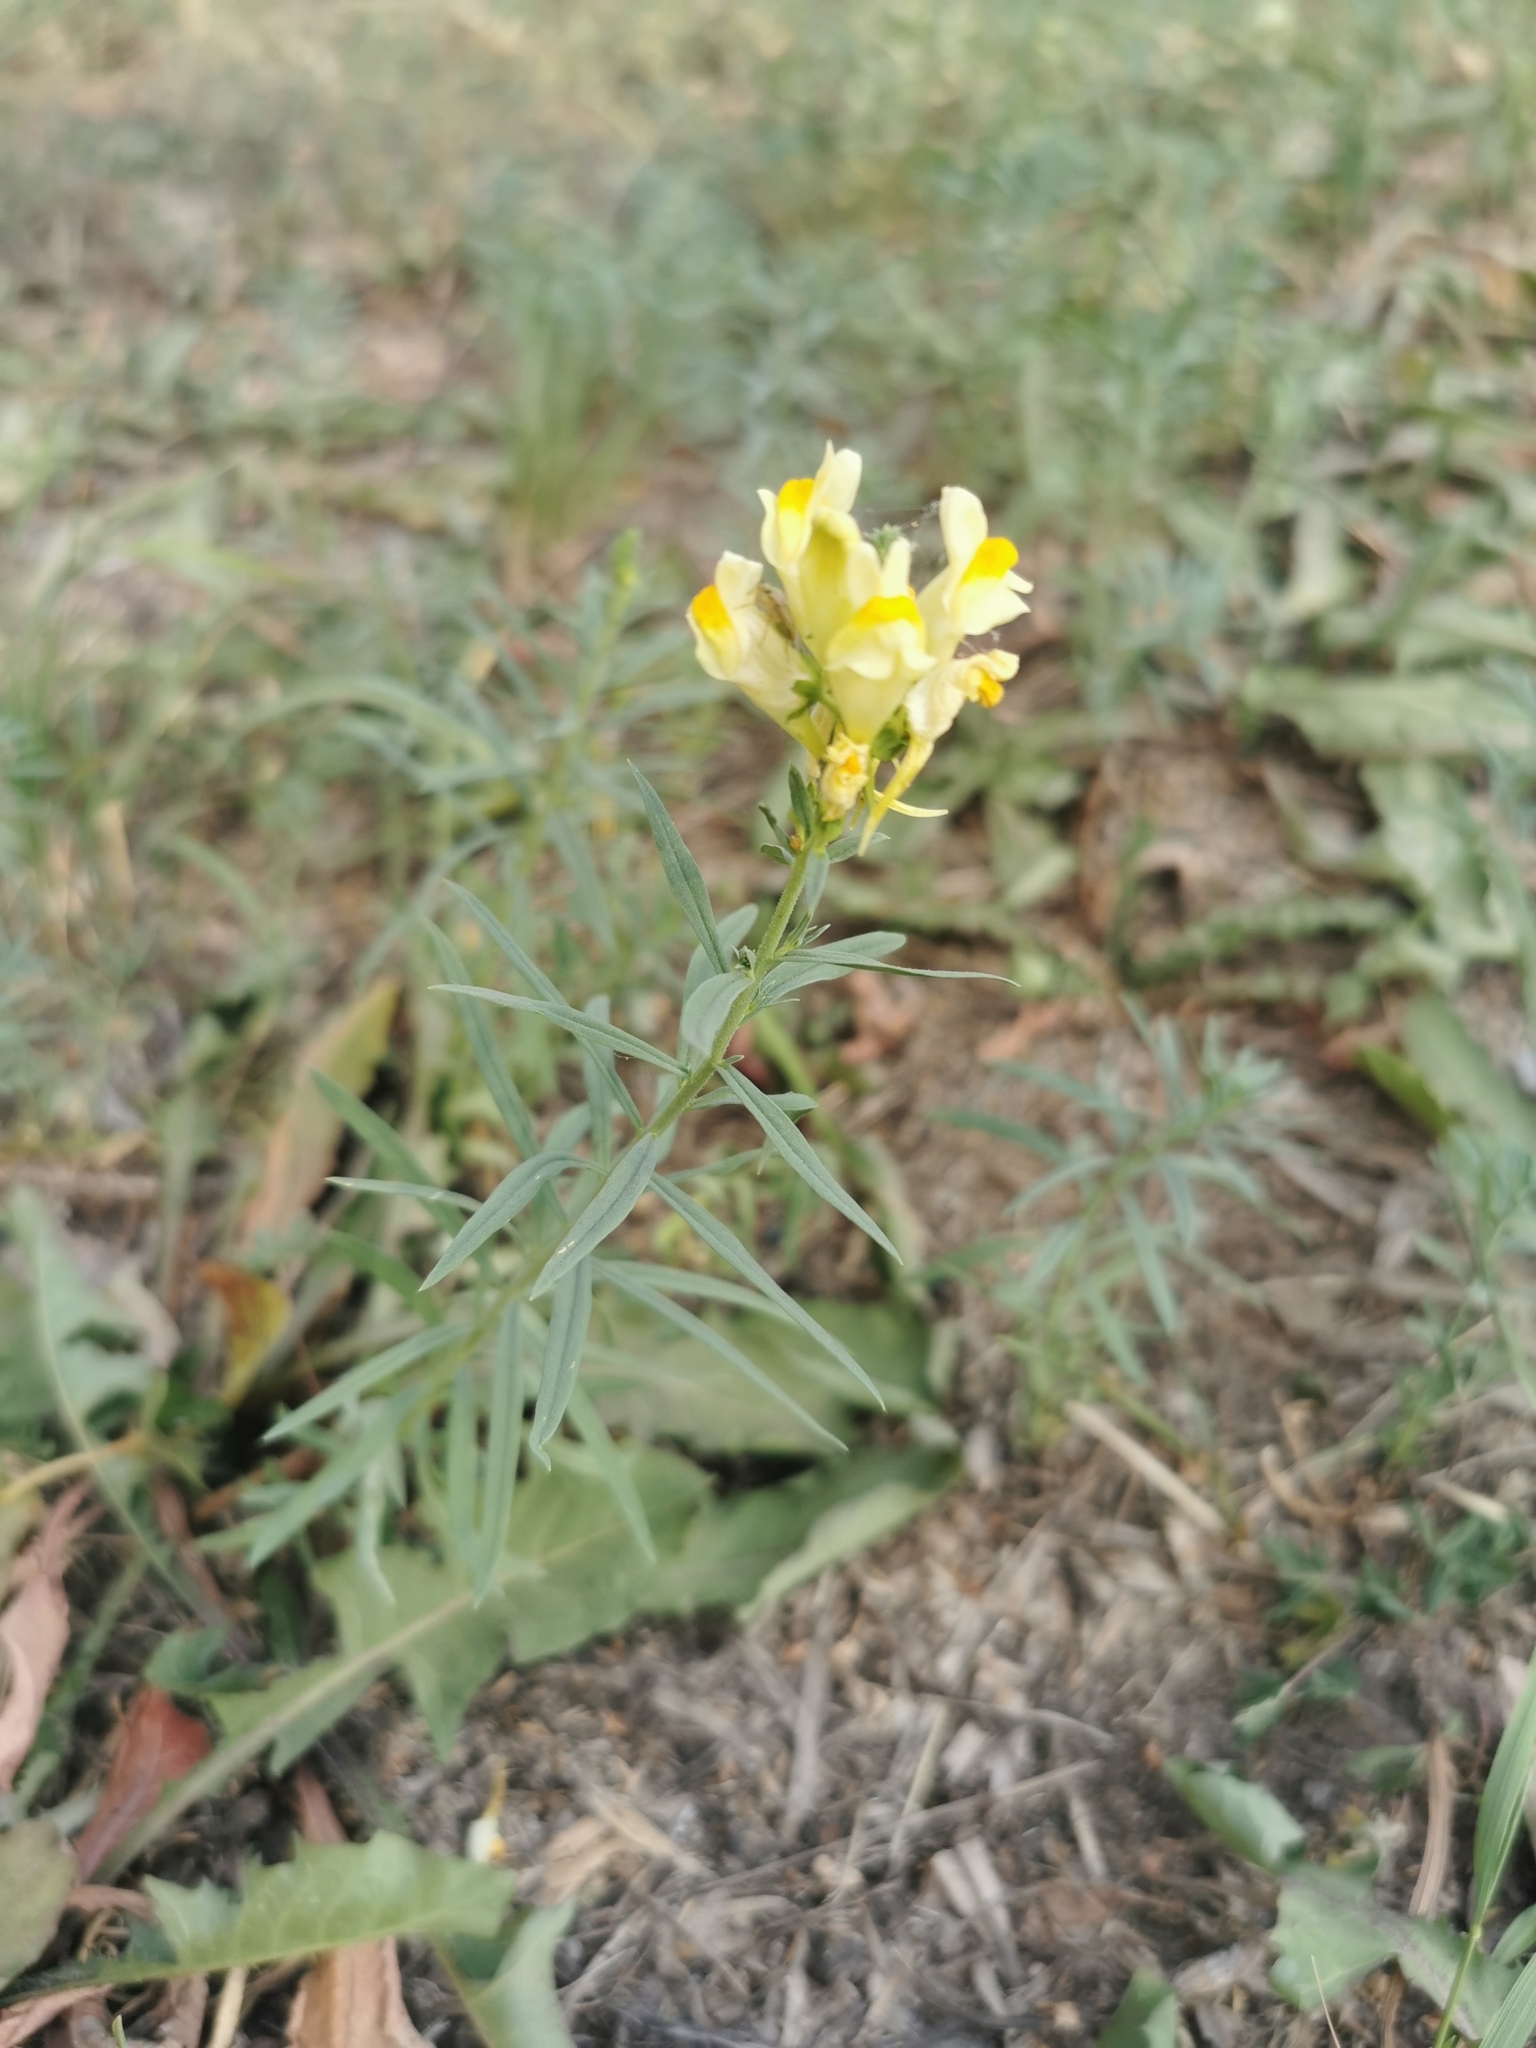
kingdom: Plantae
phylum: Tracheophyta
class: Magnoliopsida
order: Lamiales
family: Plantaginaceae
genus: Linaria
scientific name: Linaria vulgaris
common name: Butter and eggs
